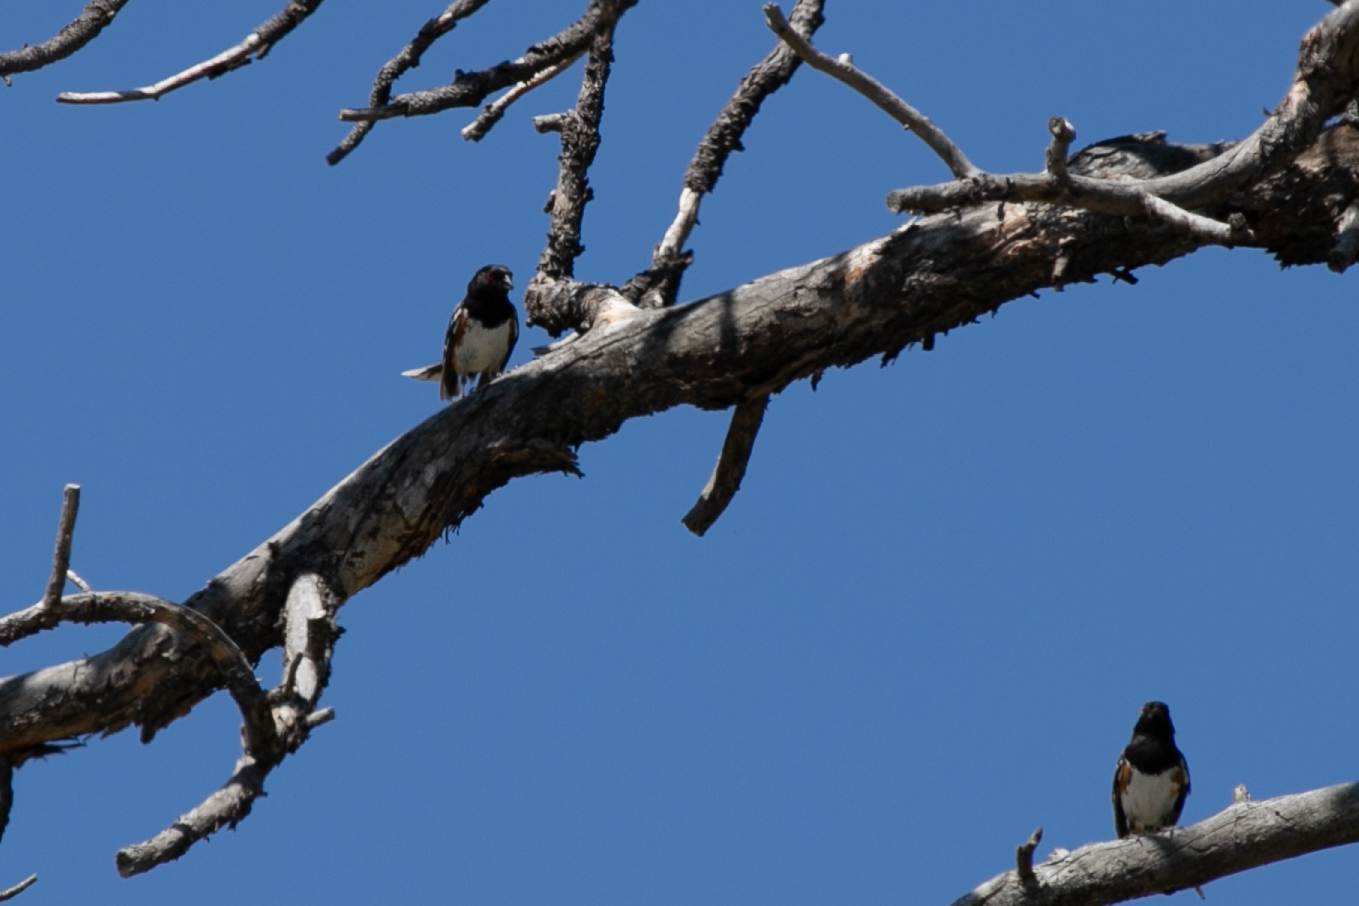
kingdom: Animalia
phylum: Chordata
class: Aves
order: Passeriformes
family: Passerellidae
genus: Pipilo
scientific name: Pipilo maculatus
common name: Spotted towhee
